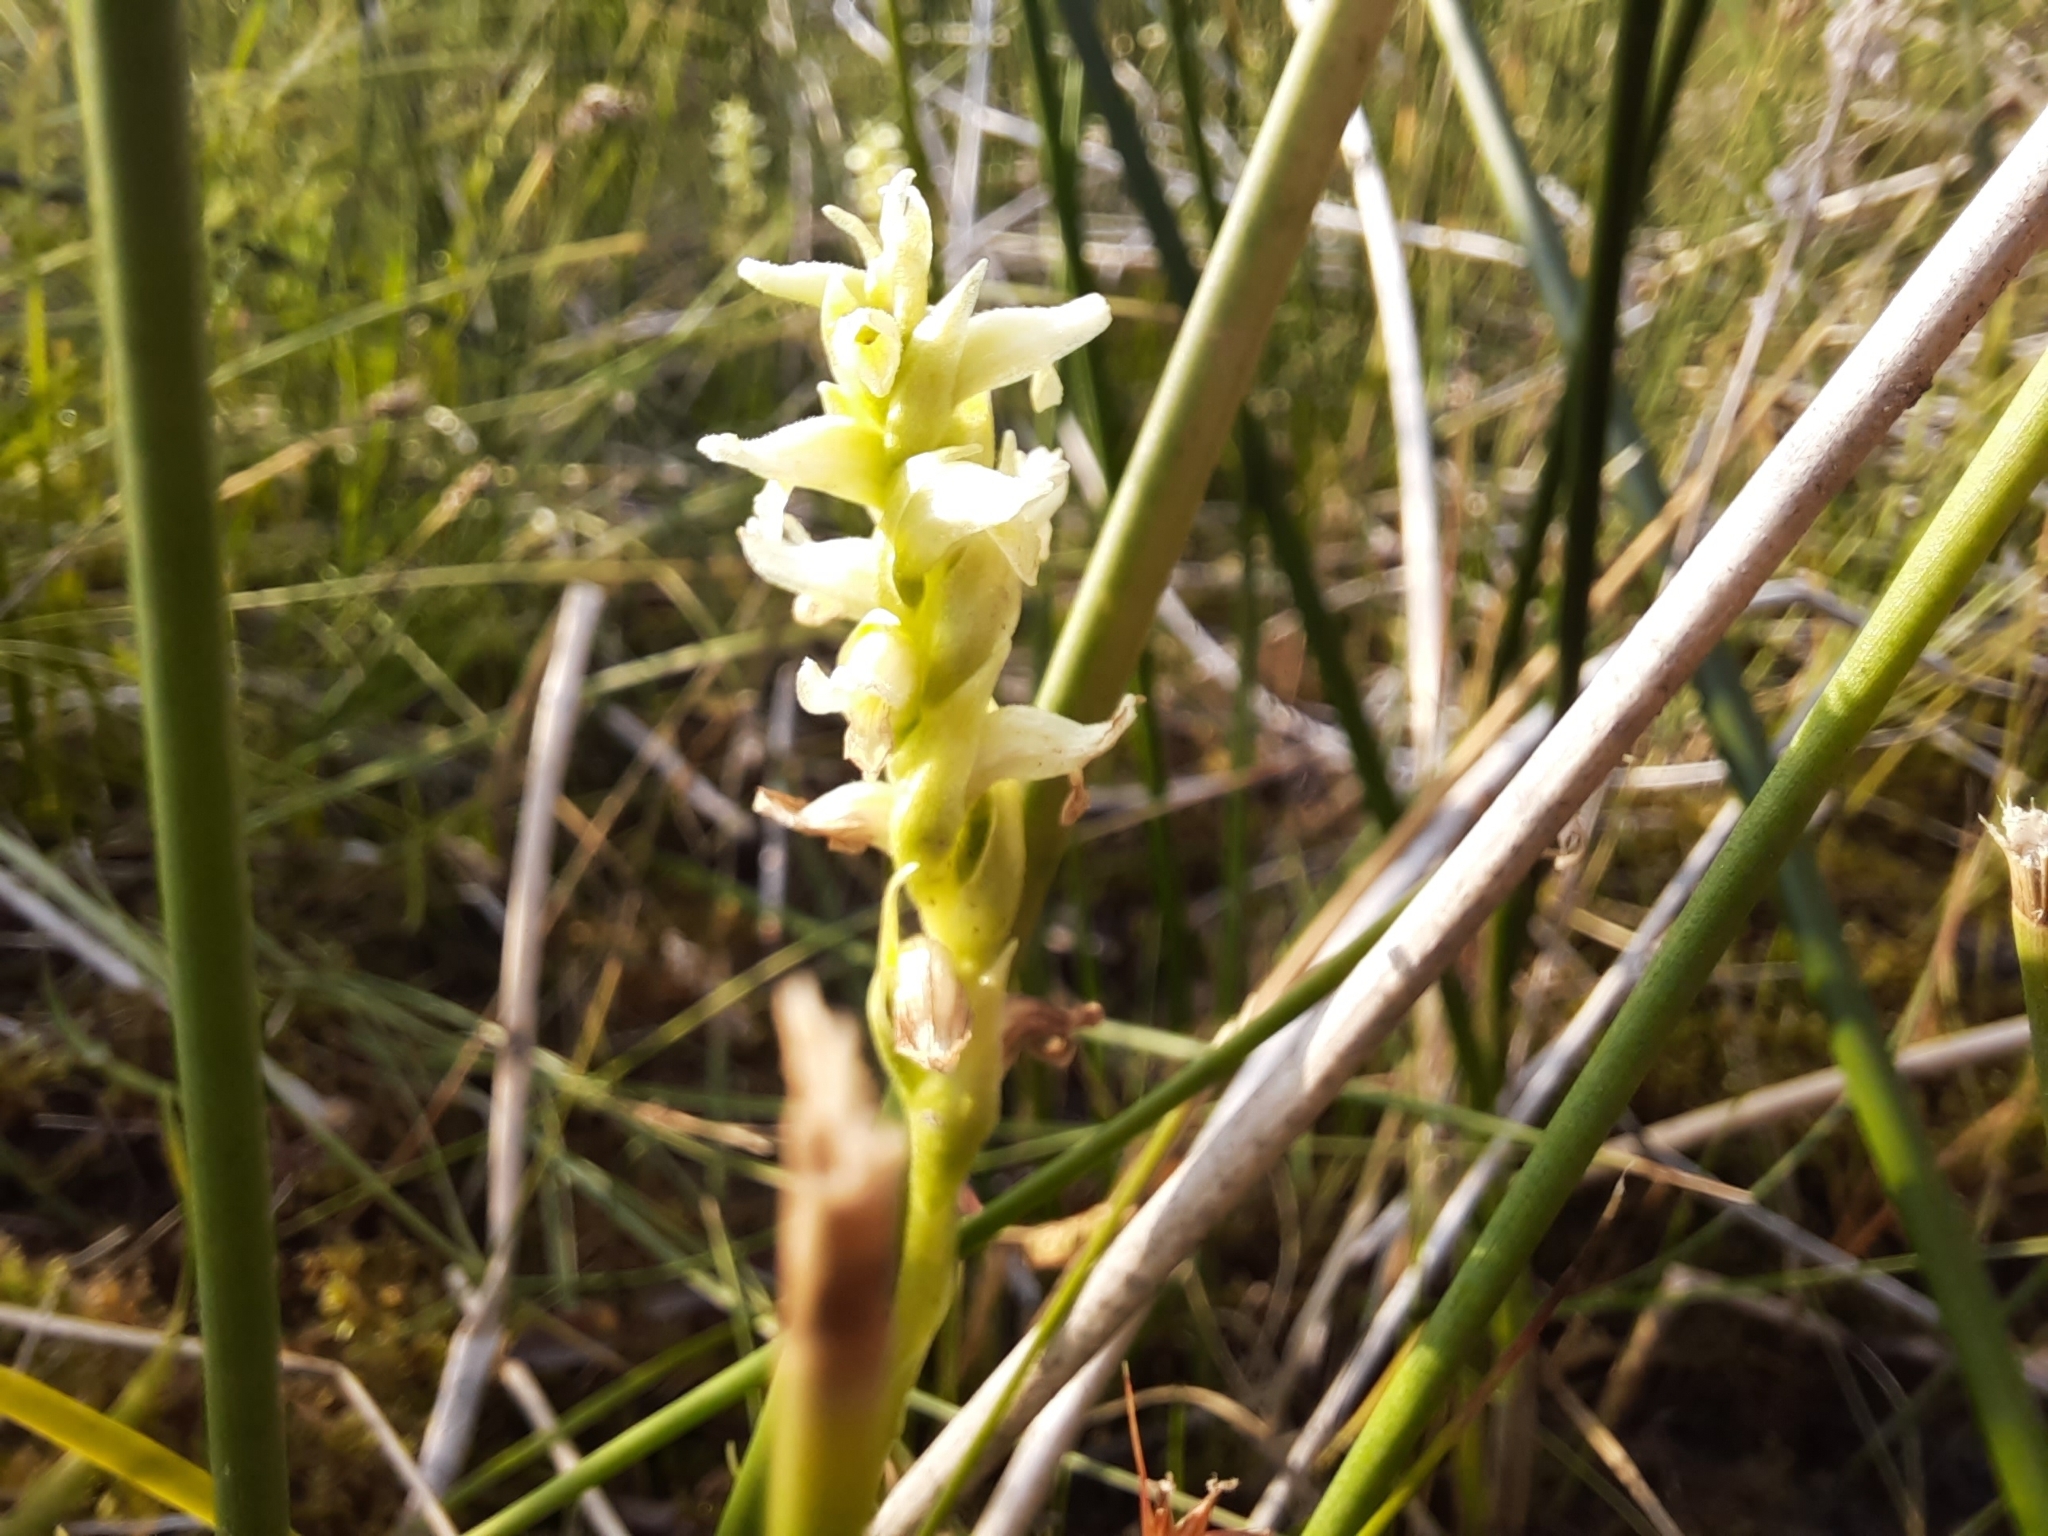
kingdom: Plantae
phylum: Tracheophyta
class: Liliopsida
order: Asparagales
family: Orchidaceae
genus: Spiranthes
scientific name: Spiranthes romanzoffiana
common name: Irish lady's-tresses
